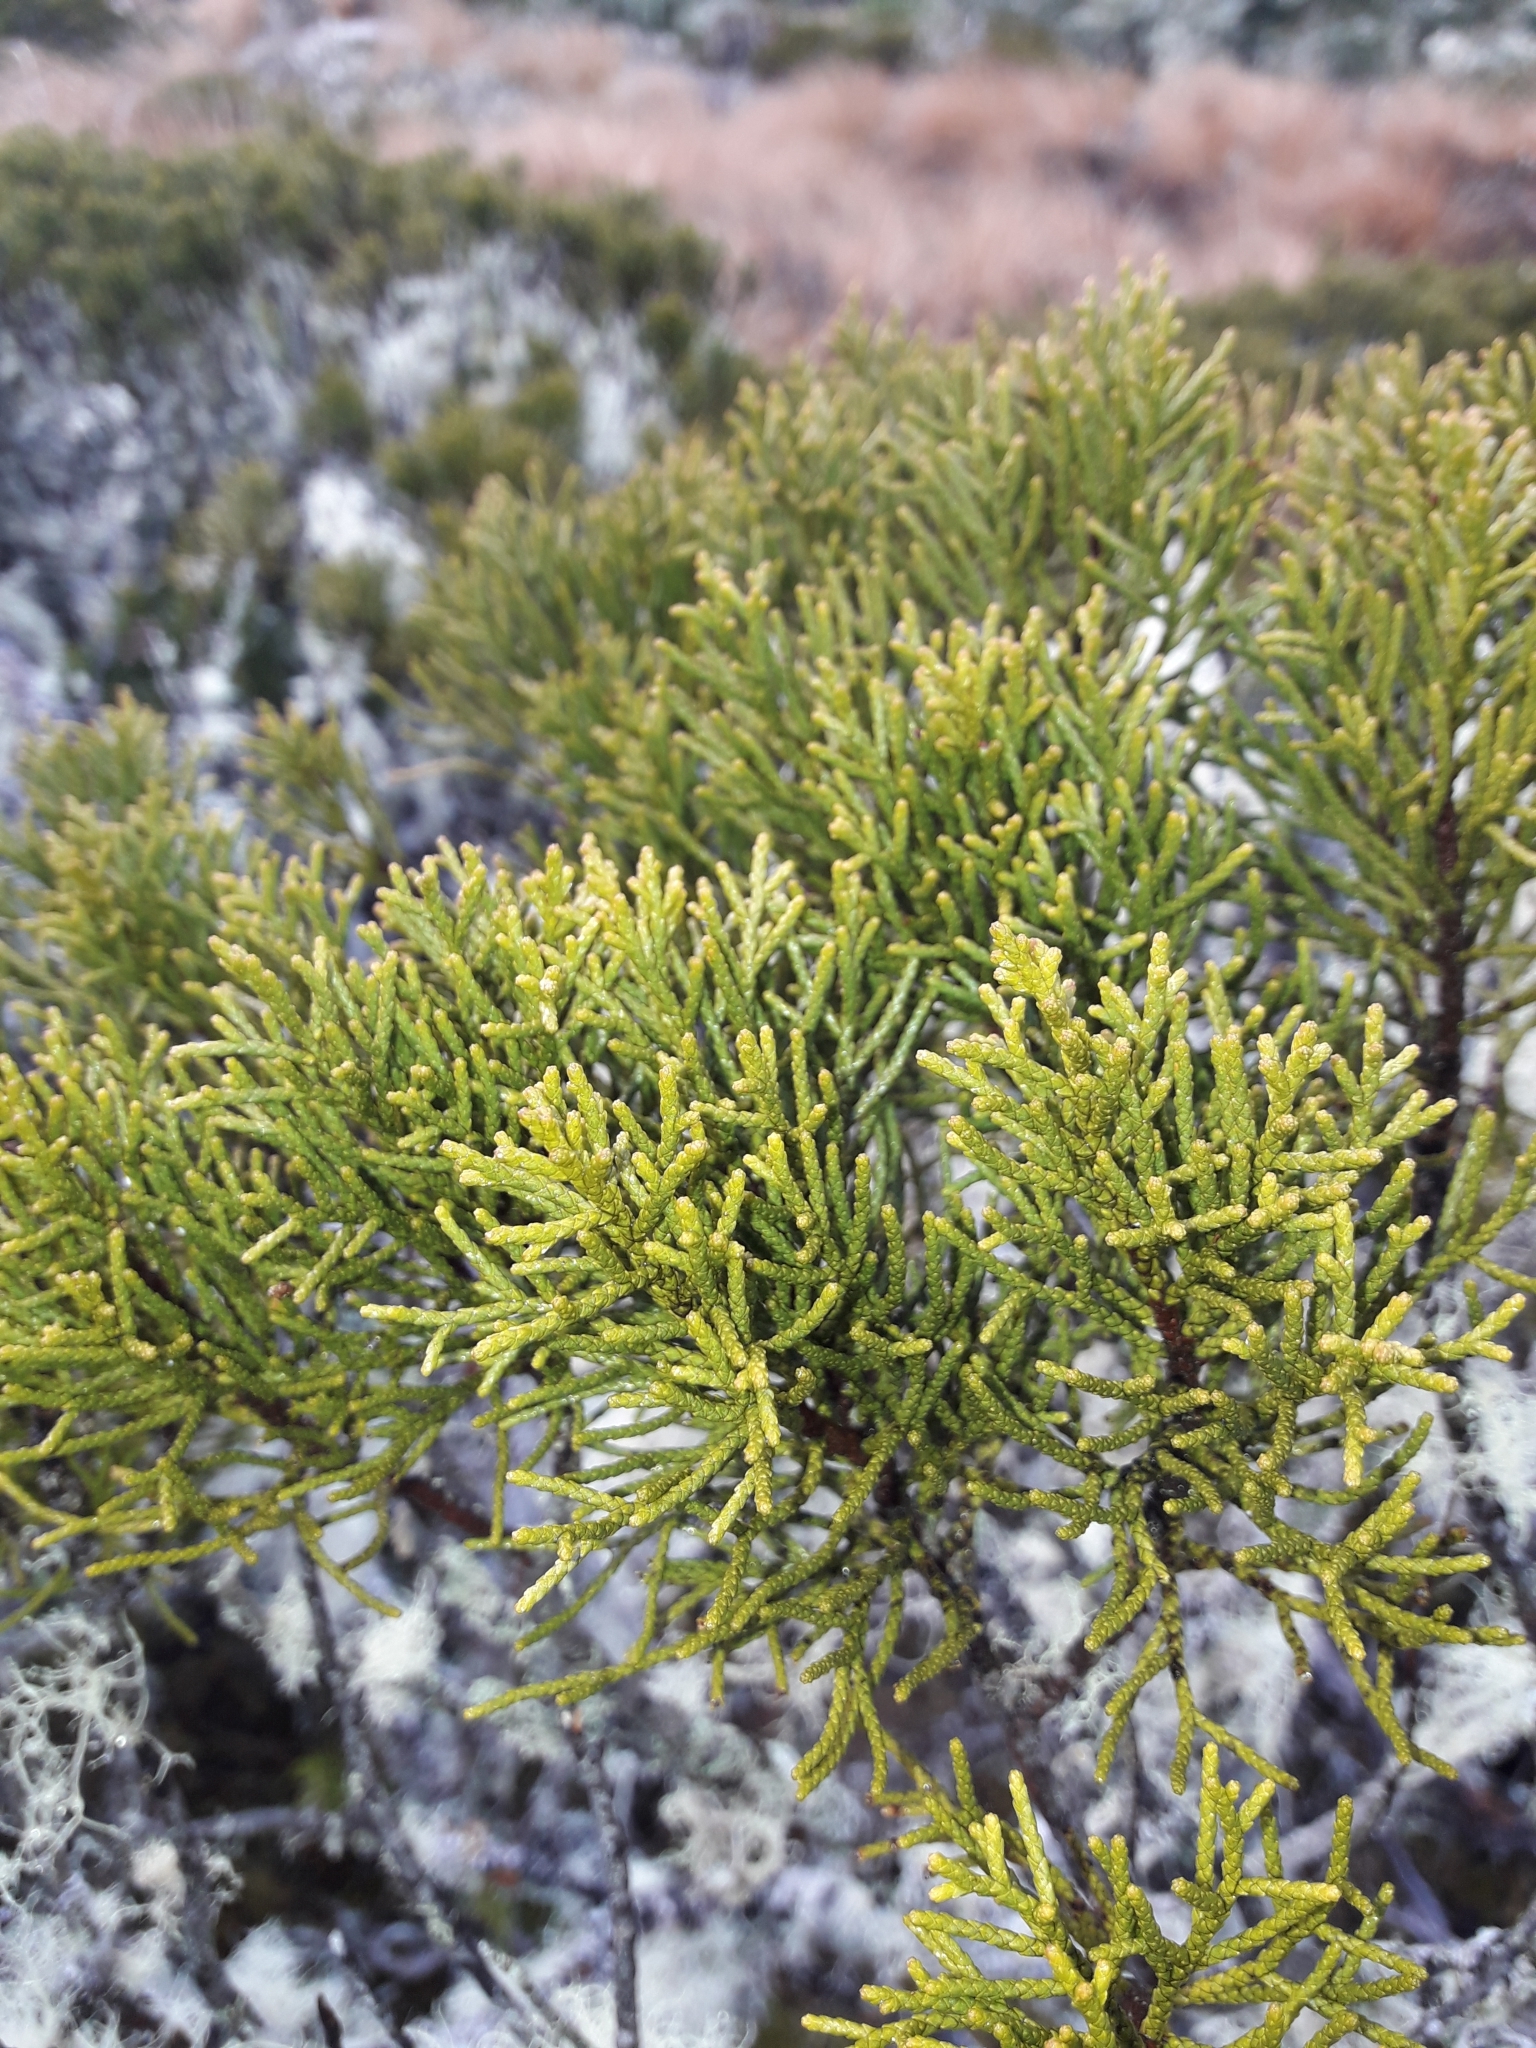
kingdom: Plantae
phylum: Tracheophyta
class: Pinopsida
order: Pinales
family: Podocarpaceae
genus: Halocarpus
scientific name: Halocarpus bidwillii
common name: Bog pine
